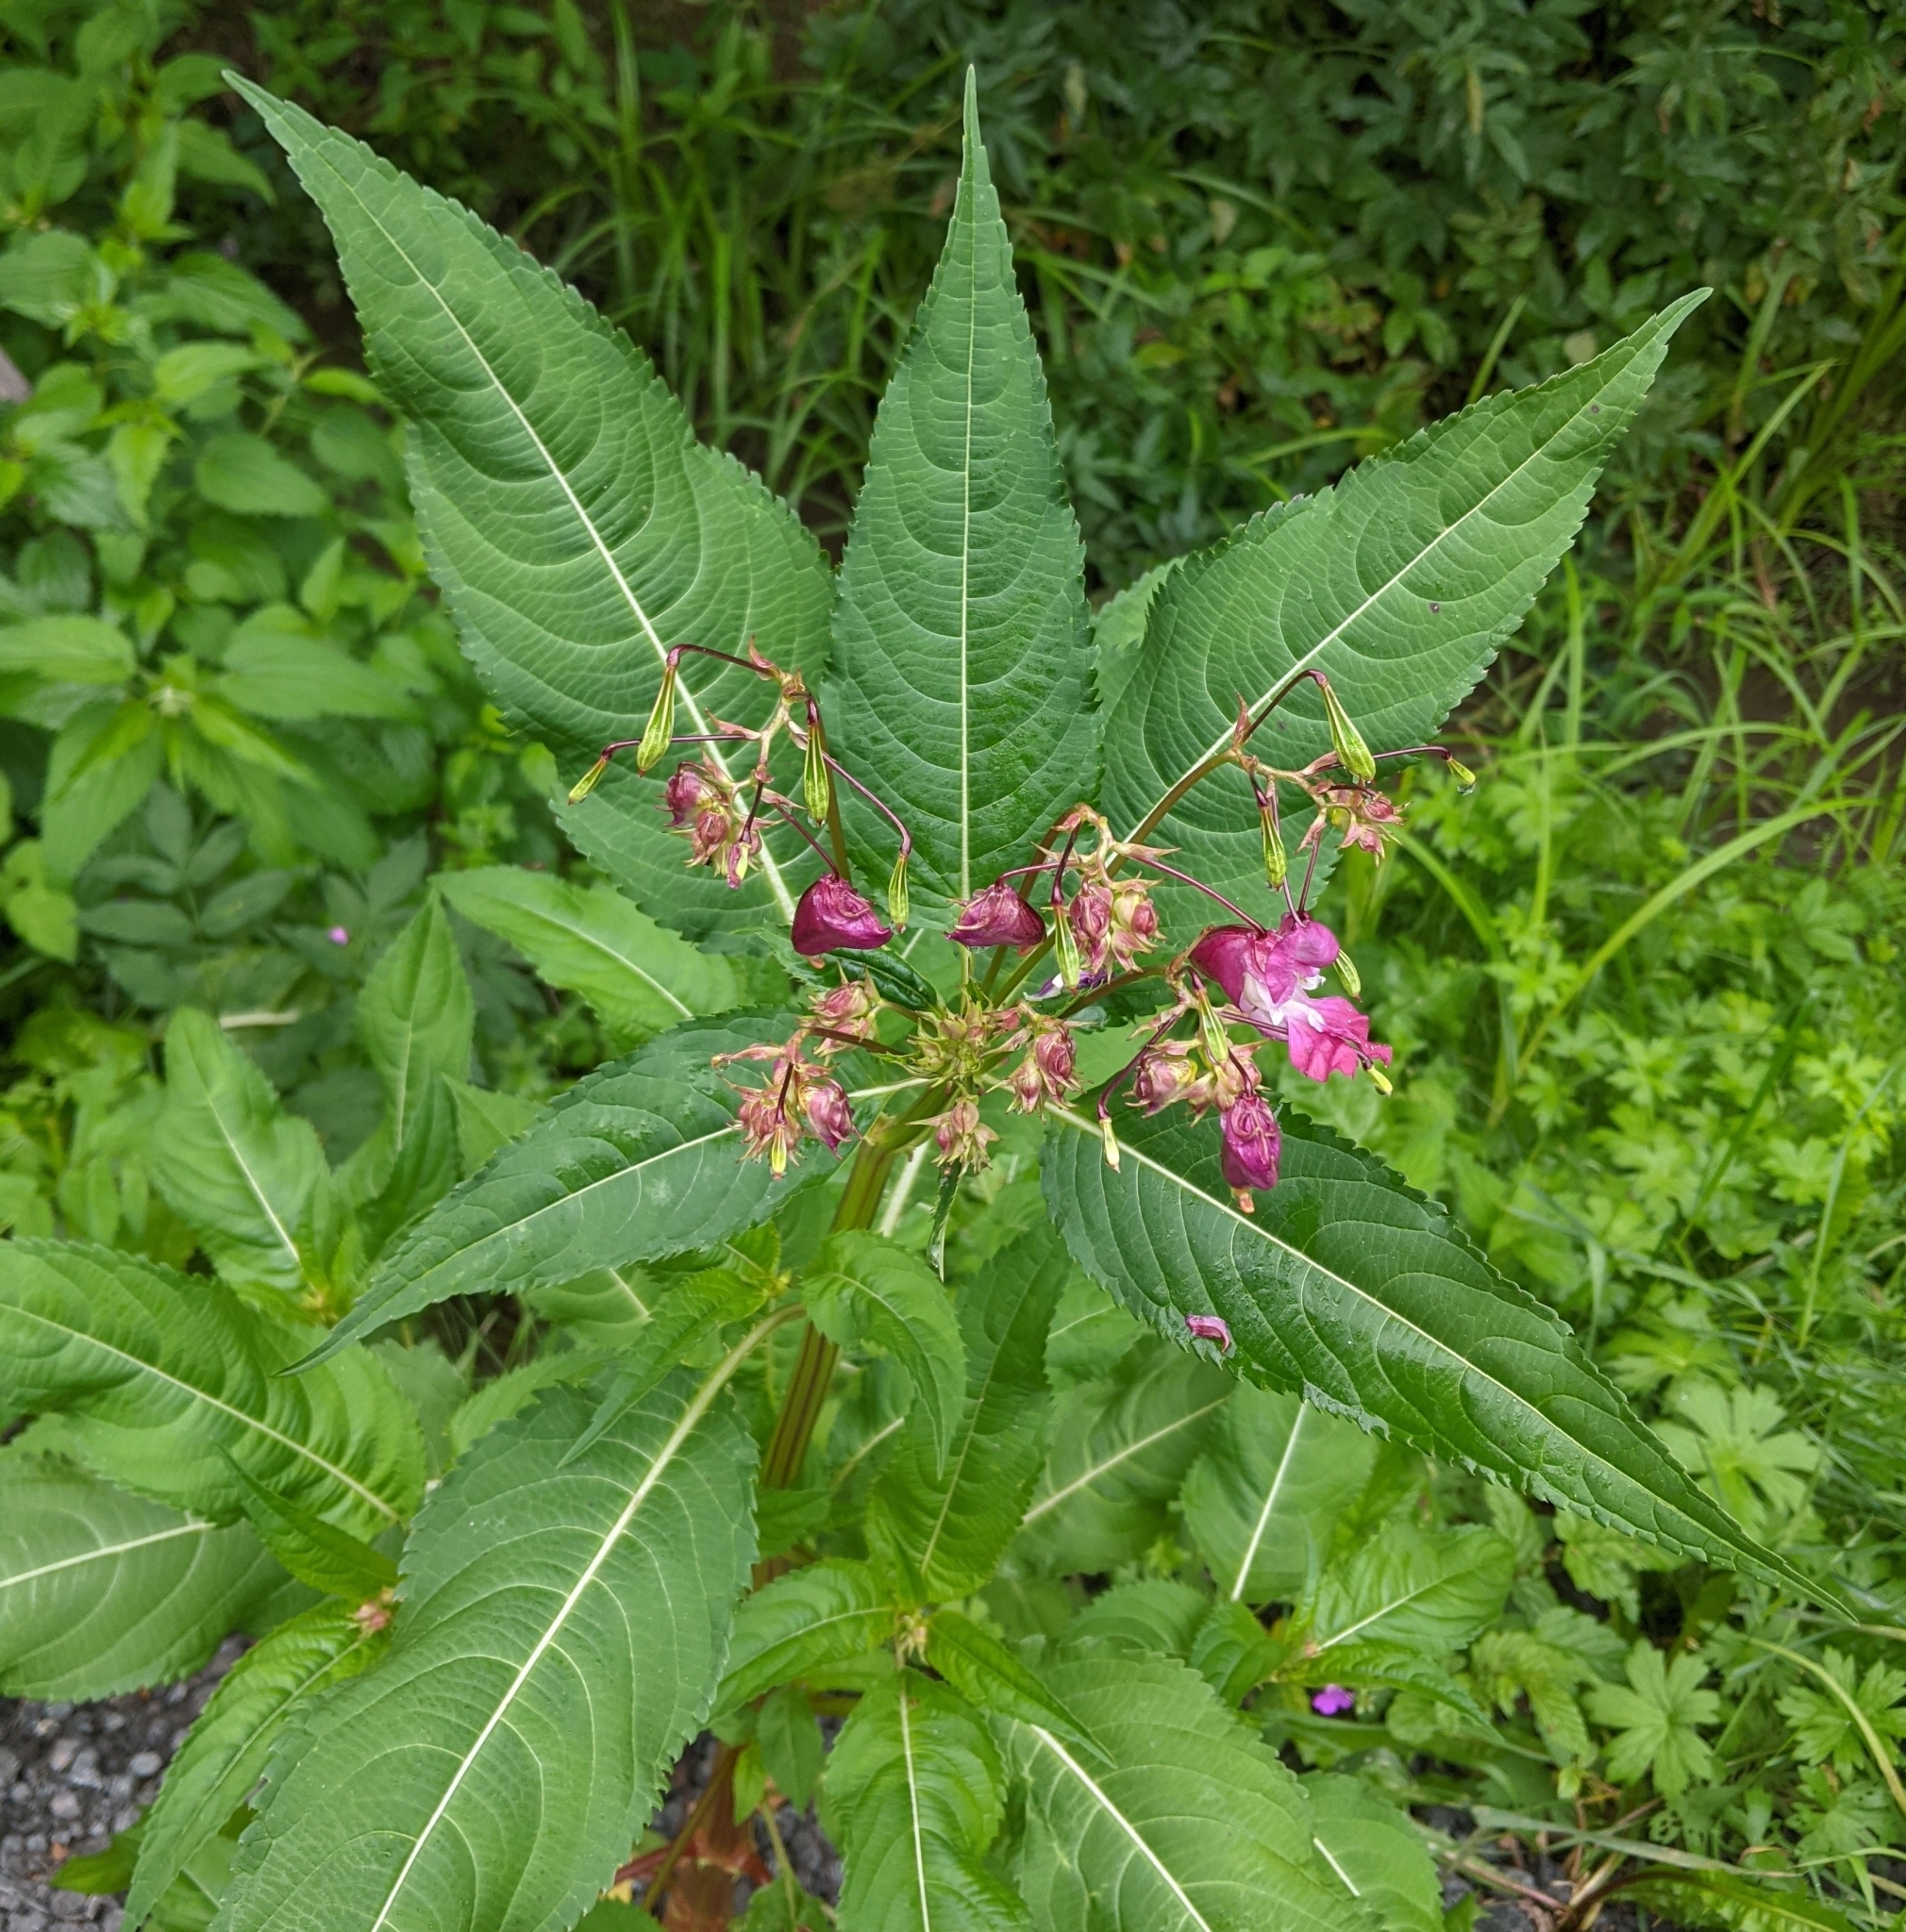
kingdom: Plantae
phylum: Tracheophyta
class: Magnoliopsida
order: Ericales
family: Balsaminaceae
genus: Impatiens
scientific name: Impatiens glandulifera
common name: Himalayan balsam
